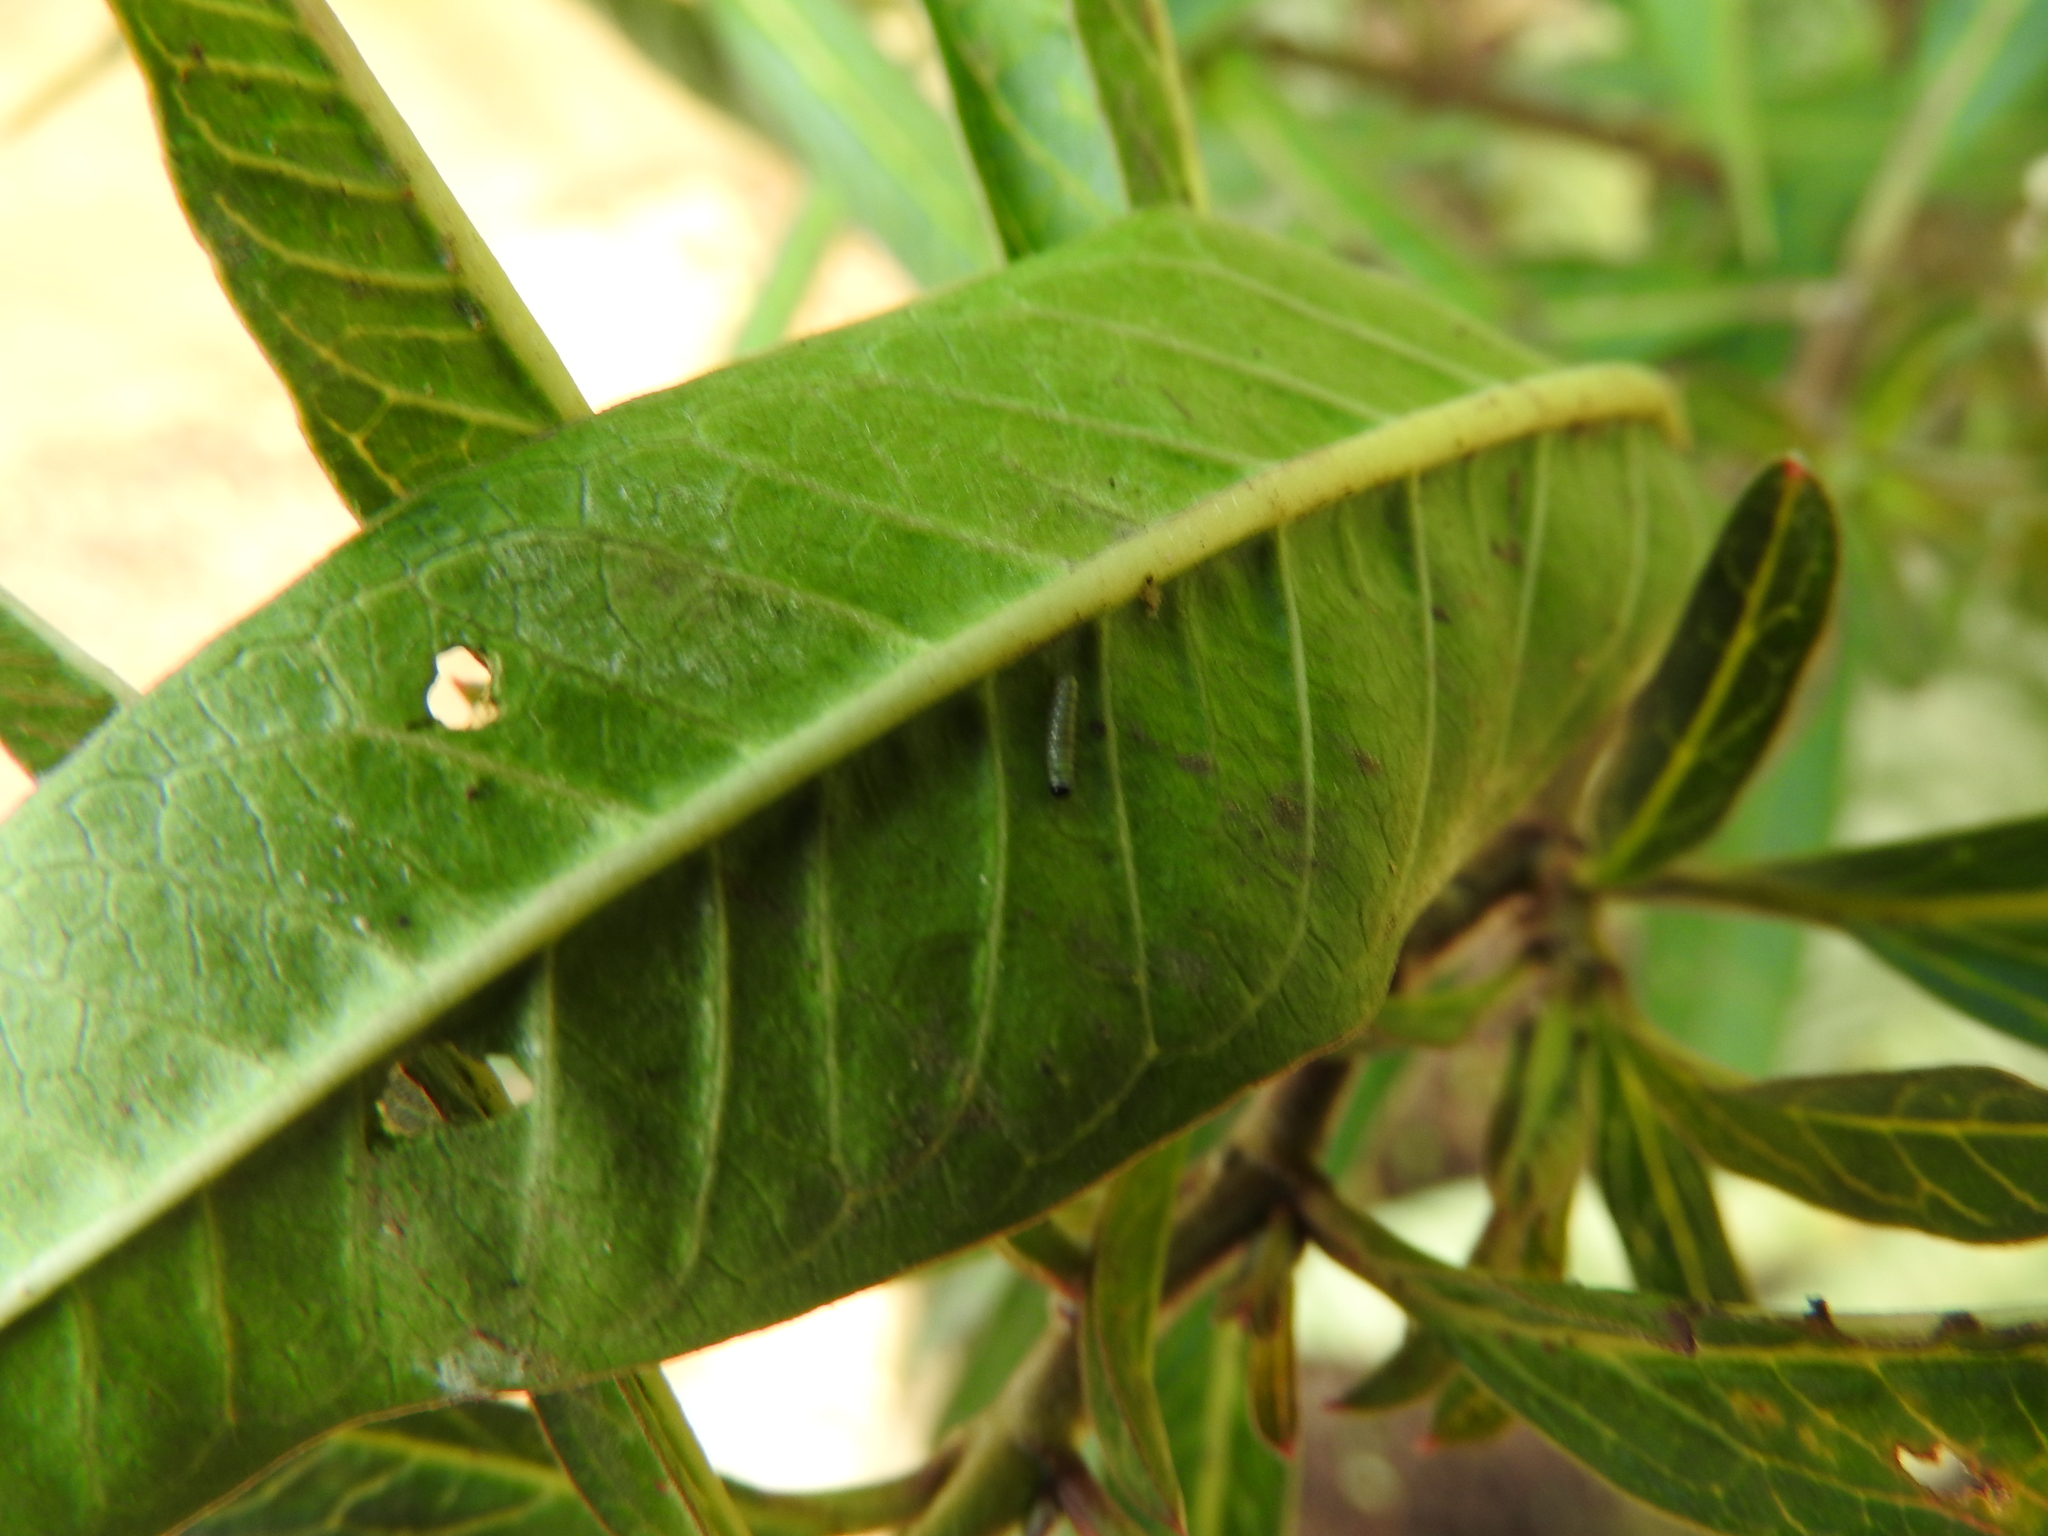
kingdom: Animalia
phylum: Arthropoda
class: Insecta
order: Lepidoptera
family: Nymphalidae
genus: Danaus
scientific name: Danaus plexippus
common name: Monarch
